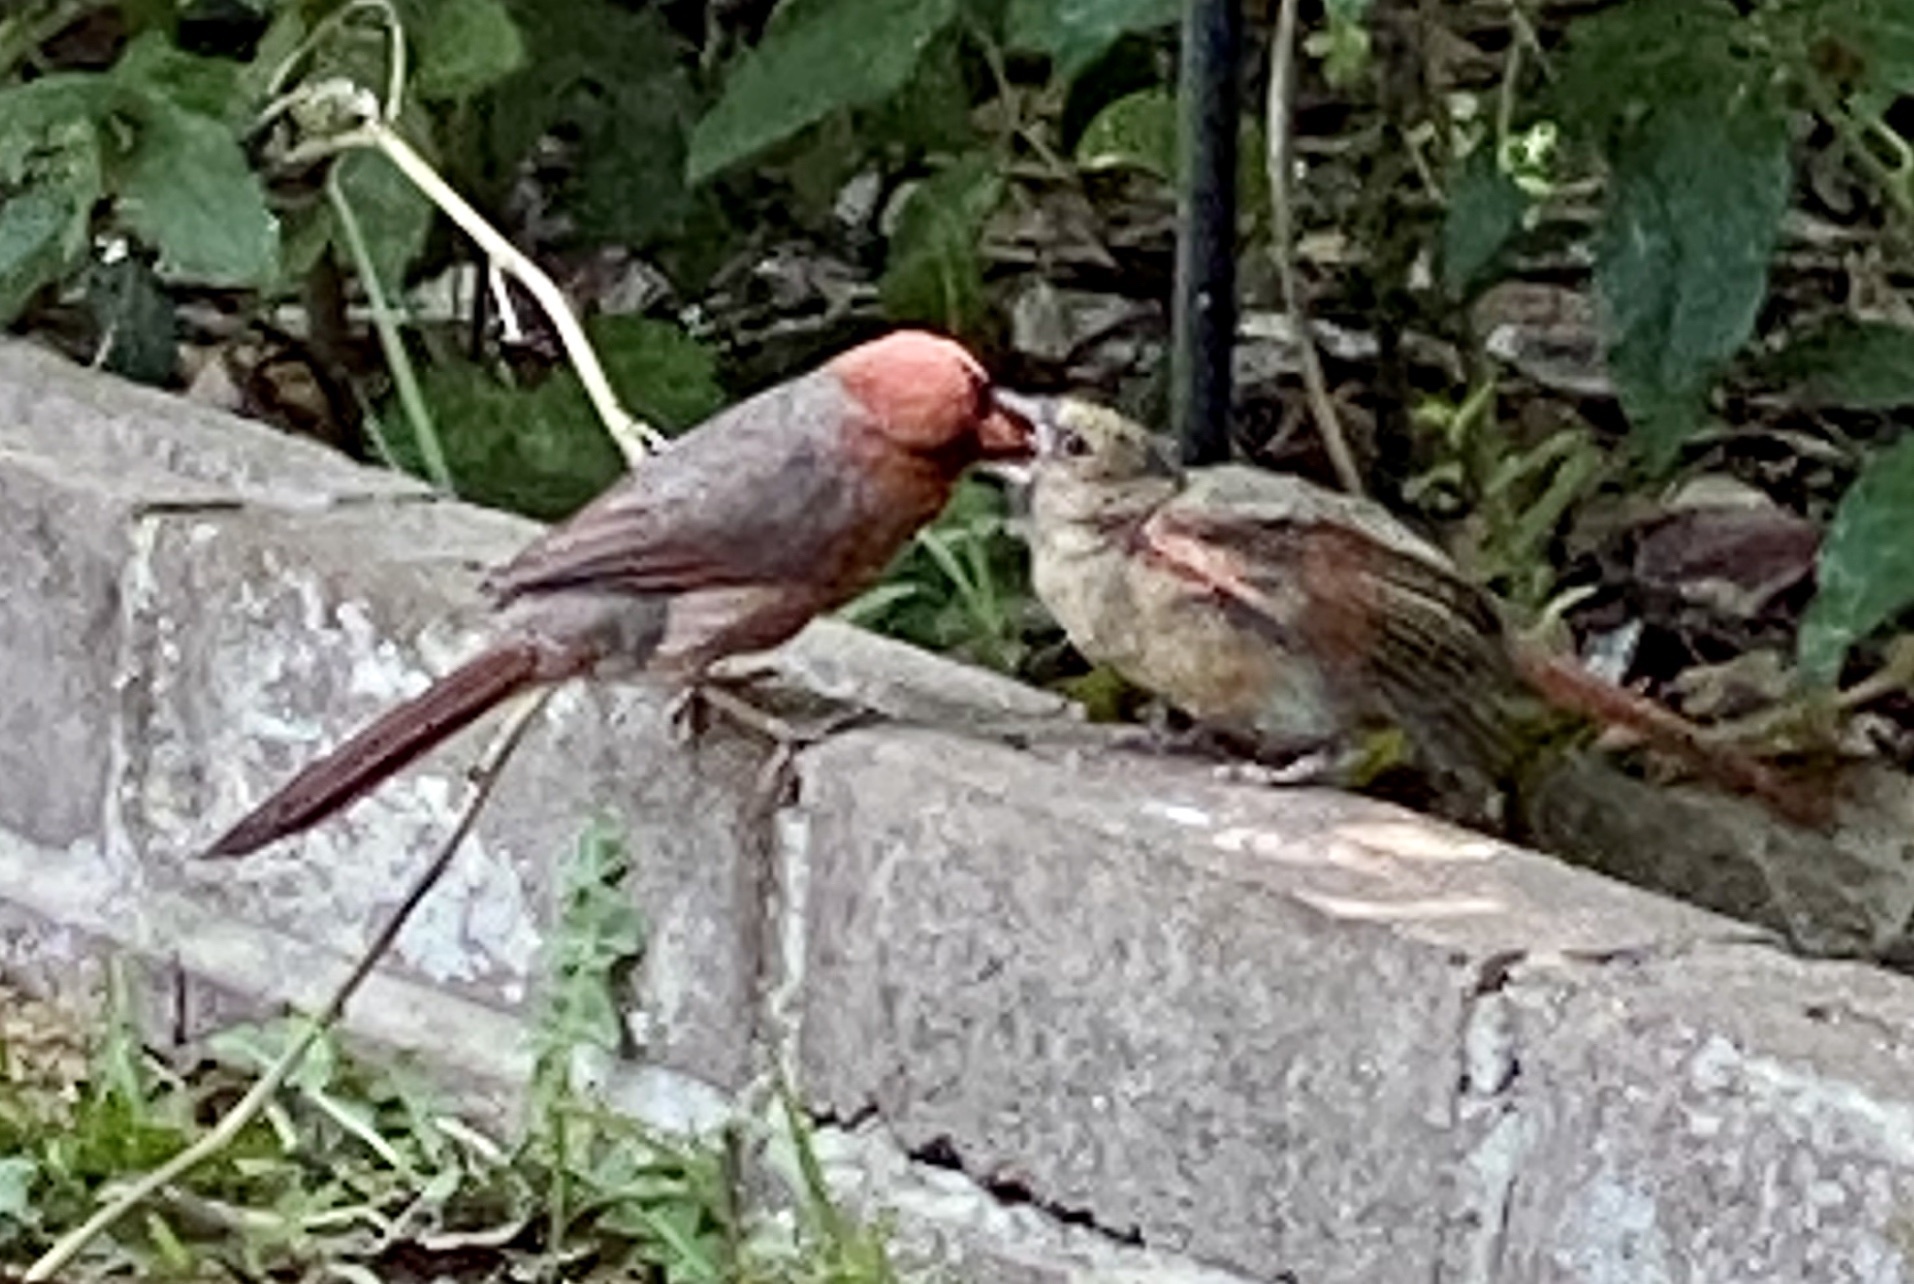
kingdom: Animalia
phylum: Chordata
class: Aves
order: Passeriformes
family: Cardinalidae
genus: Cardinalis
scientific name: Cardinalis cardinalis
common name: Northern cardinal
